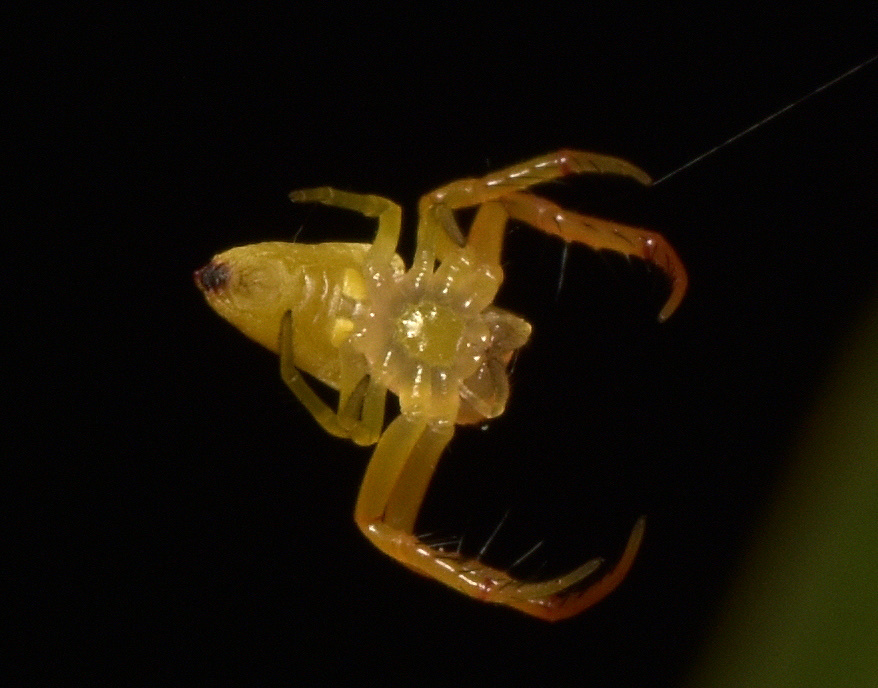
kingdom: Animalia
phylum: Arthropoda
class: Arachnida
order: Araneae
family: Arkyidae
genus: Arkys
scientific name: Arkys walckenaeri
